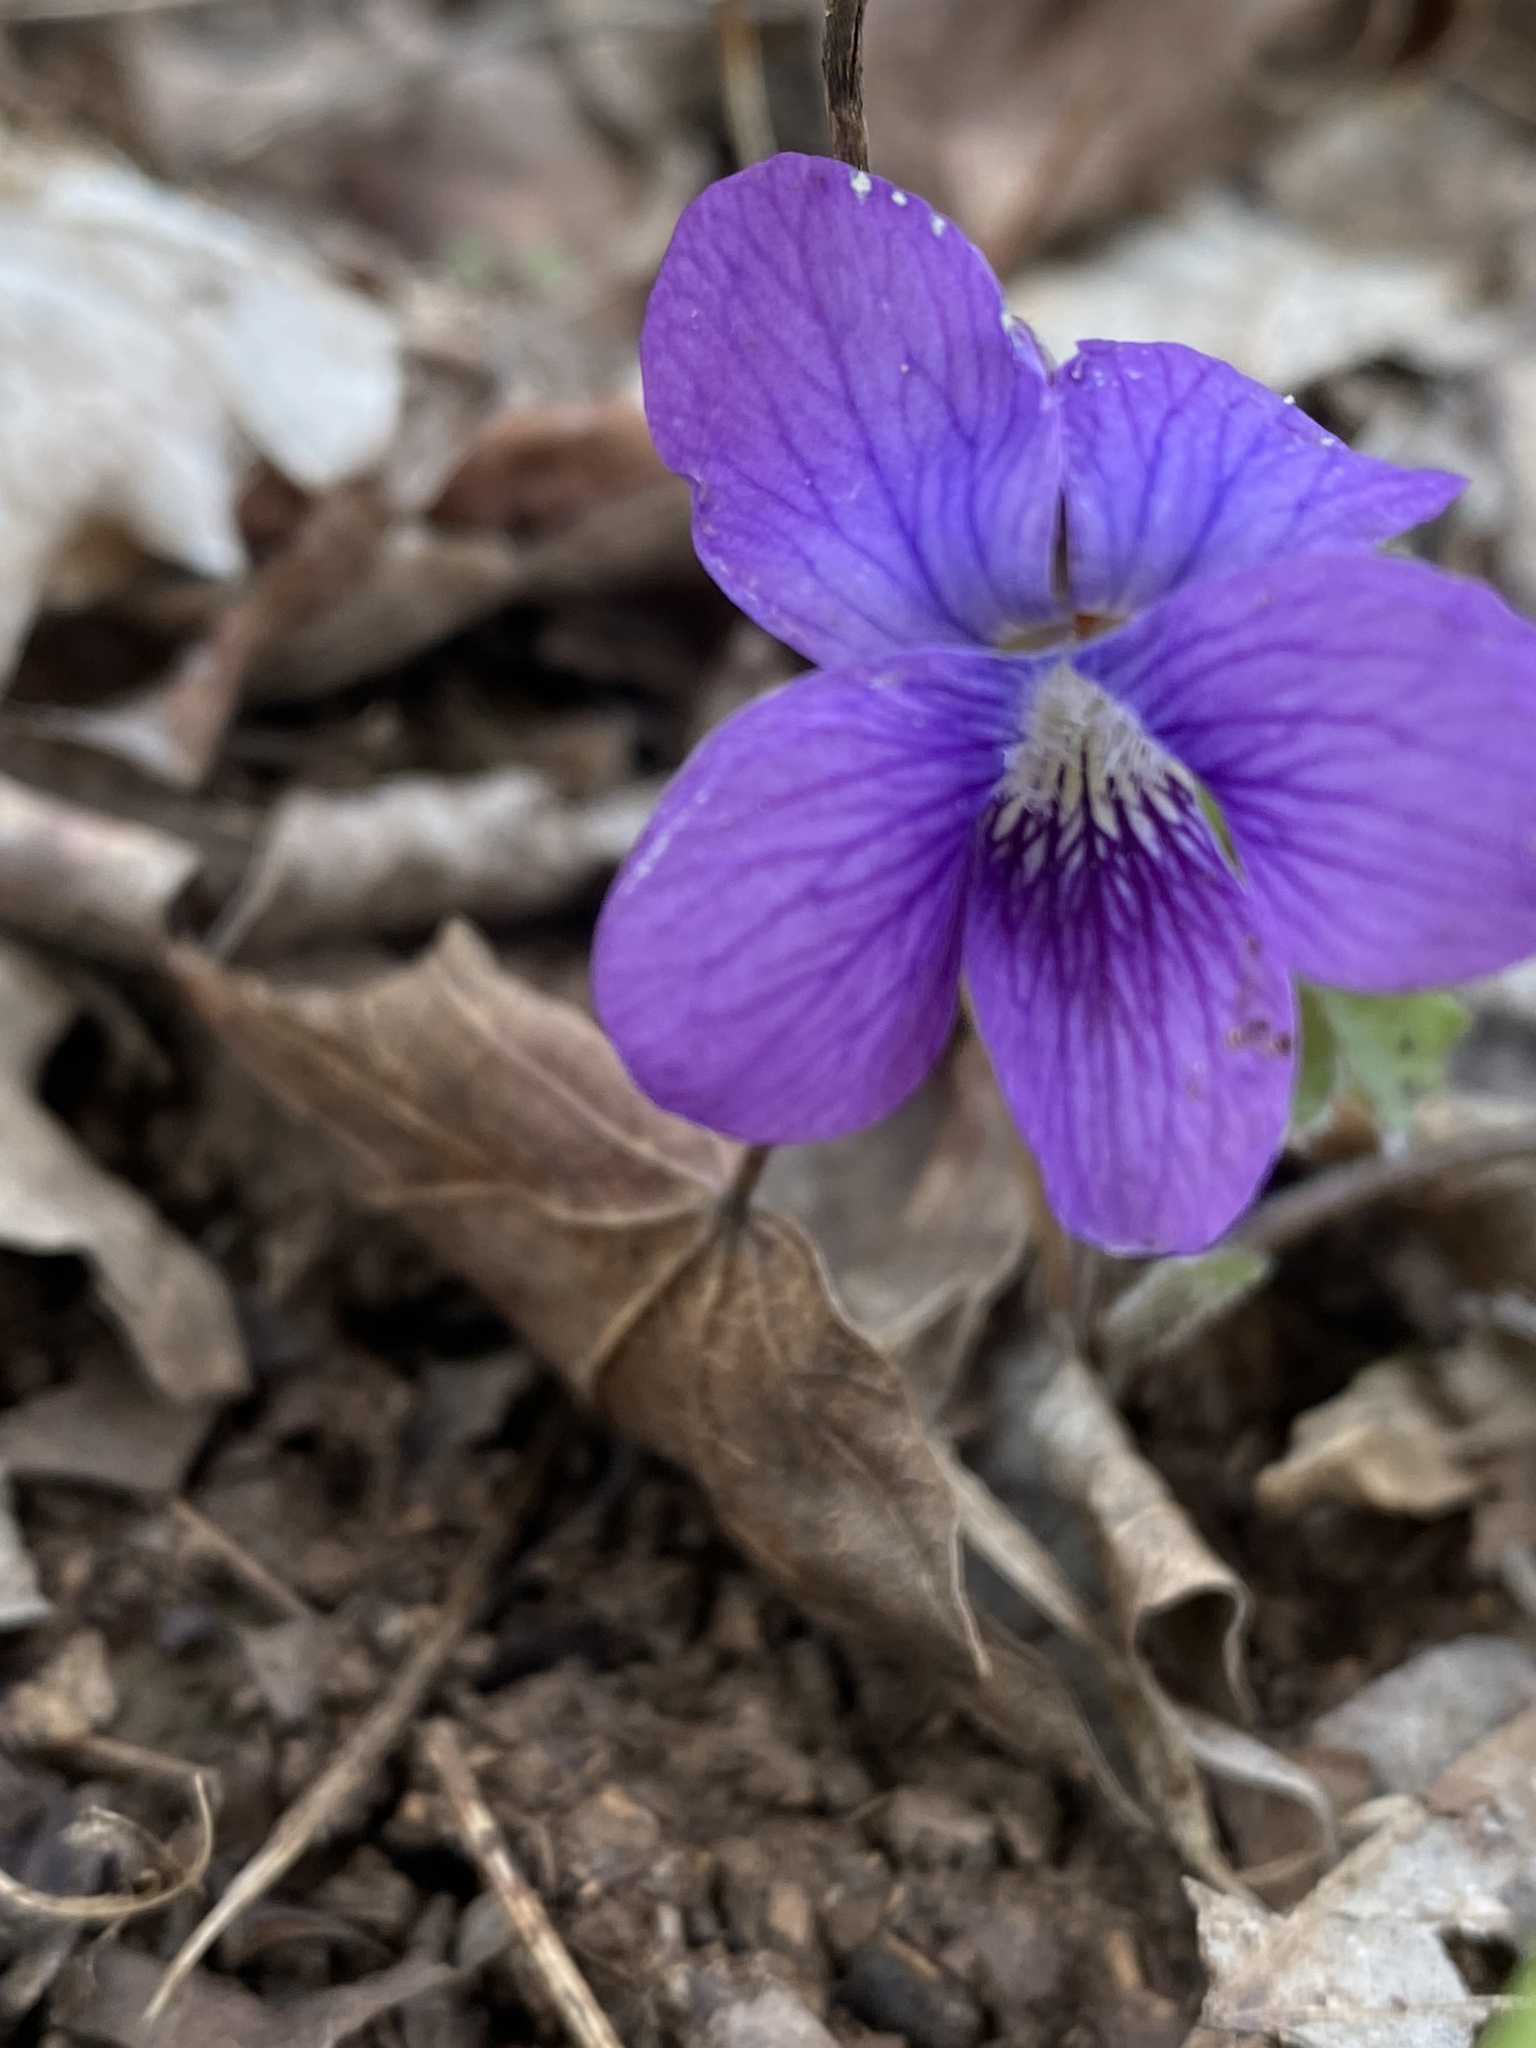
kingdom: Plantae
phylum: Tracheophyta
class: Magnoliopsida
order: Malpighiales
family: Violaceae
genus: Viola
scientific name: Viola sororia
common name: Dooryard violet
